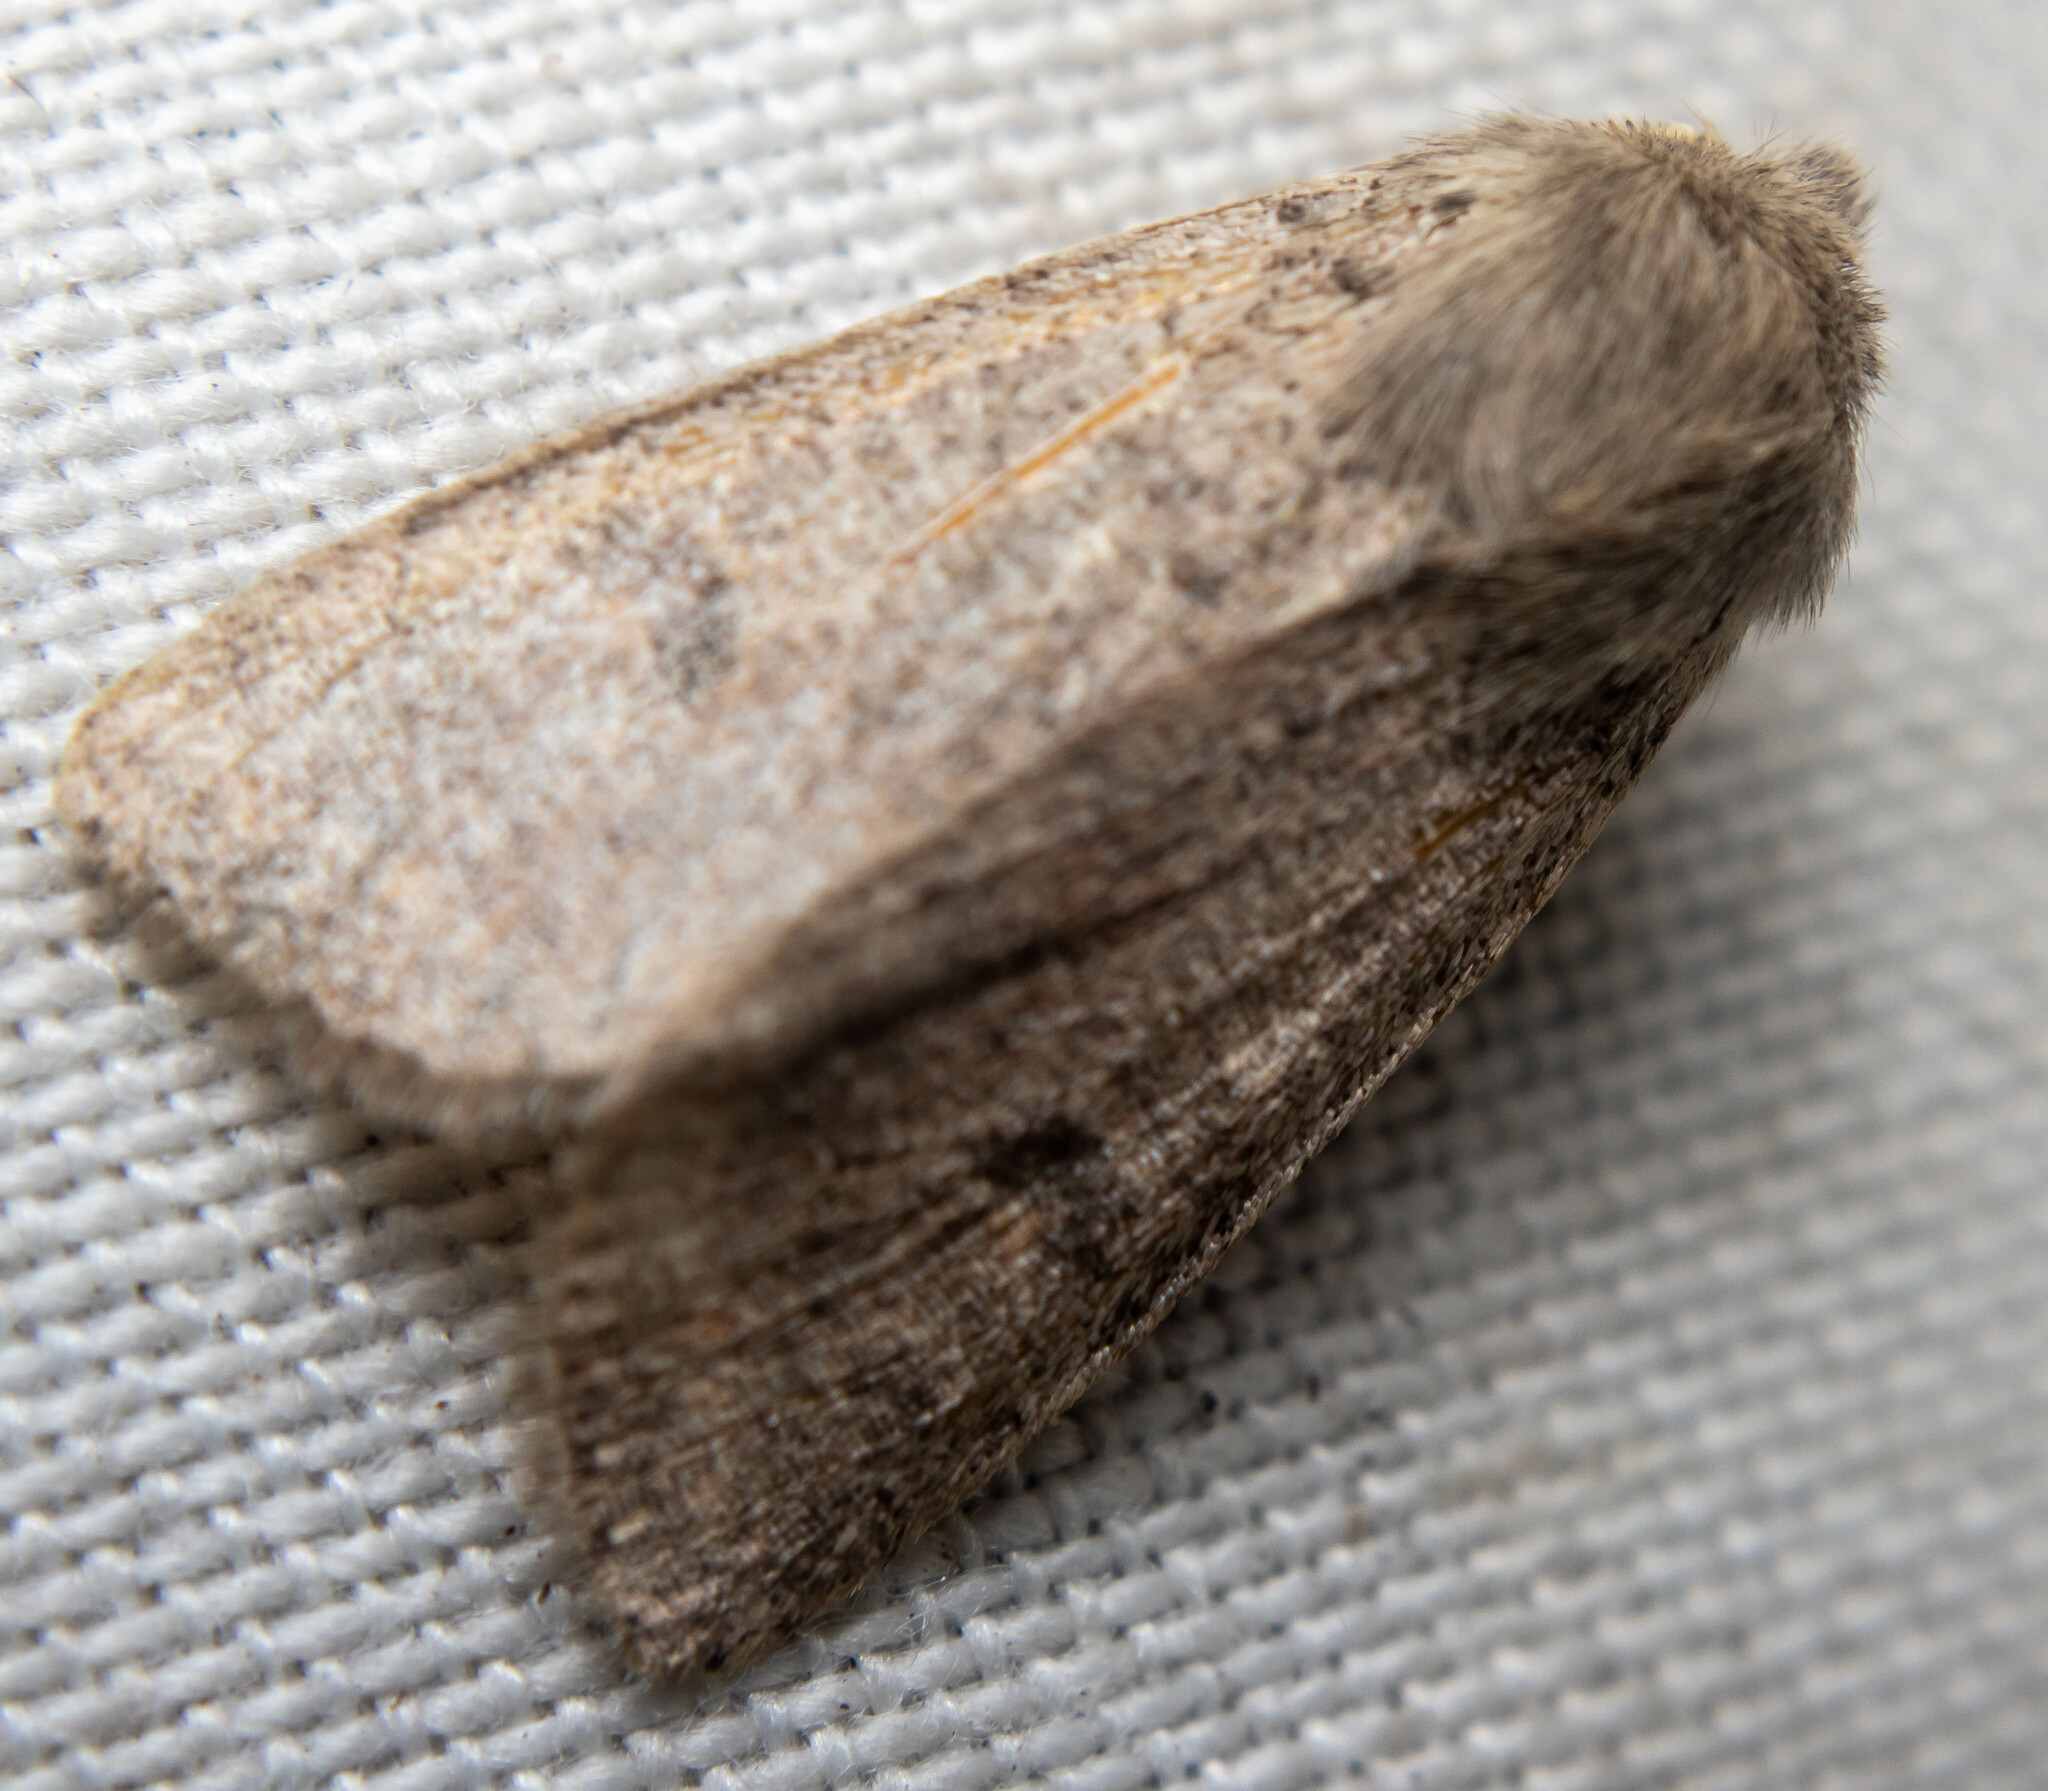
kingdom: Animalia
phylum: Arthropoda
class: Insecta
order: Lepidoptera
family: Noctuidae
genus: Orthosia
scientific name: Orthosia cruda
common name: Small quaker
